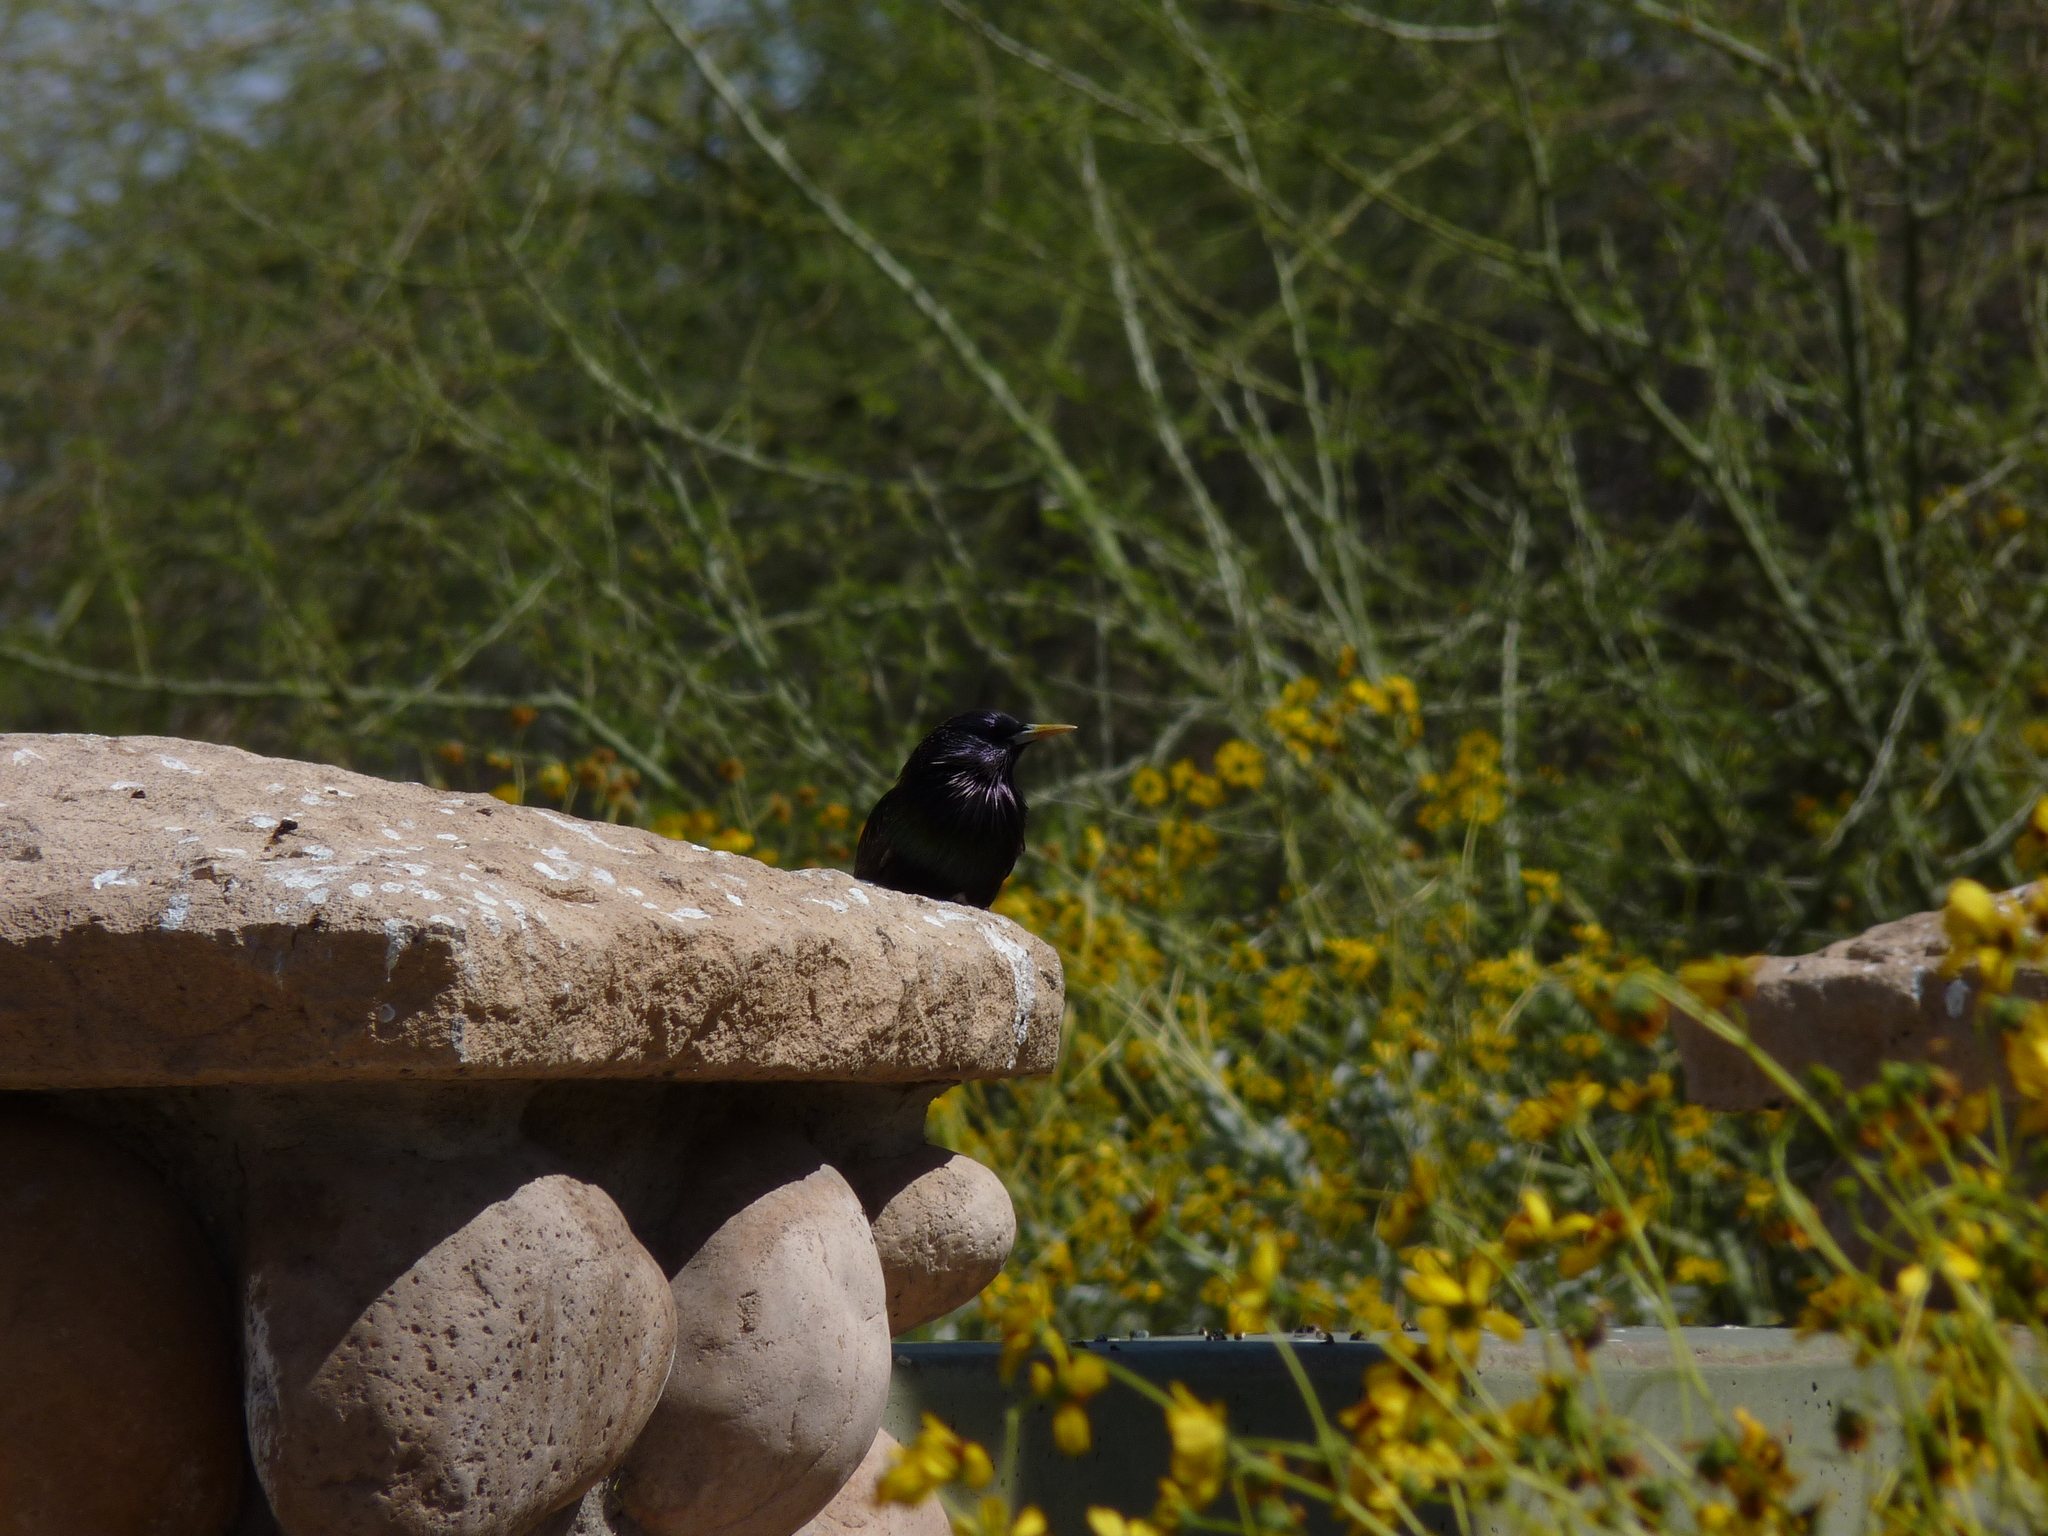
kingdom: Animalia
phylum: Chordata
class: Aves
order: Passeriformes
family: Sturnidae
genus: Sturnus
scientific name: Sturnus vulgaris
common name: Common starling
